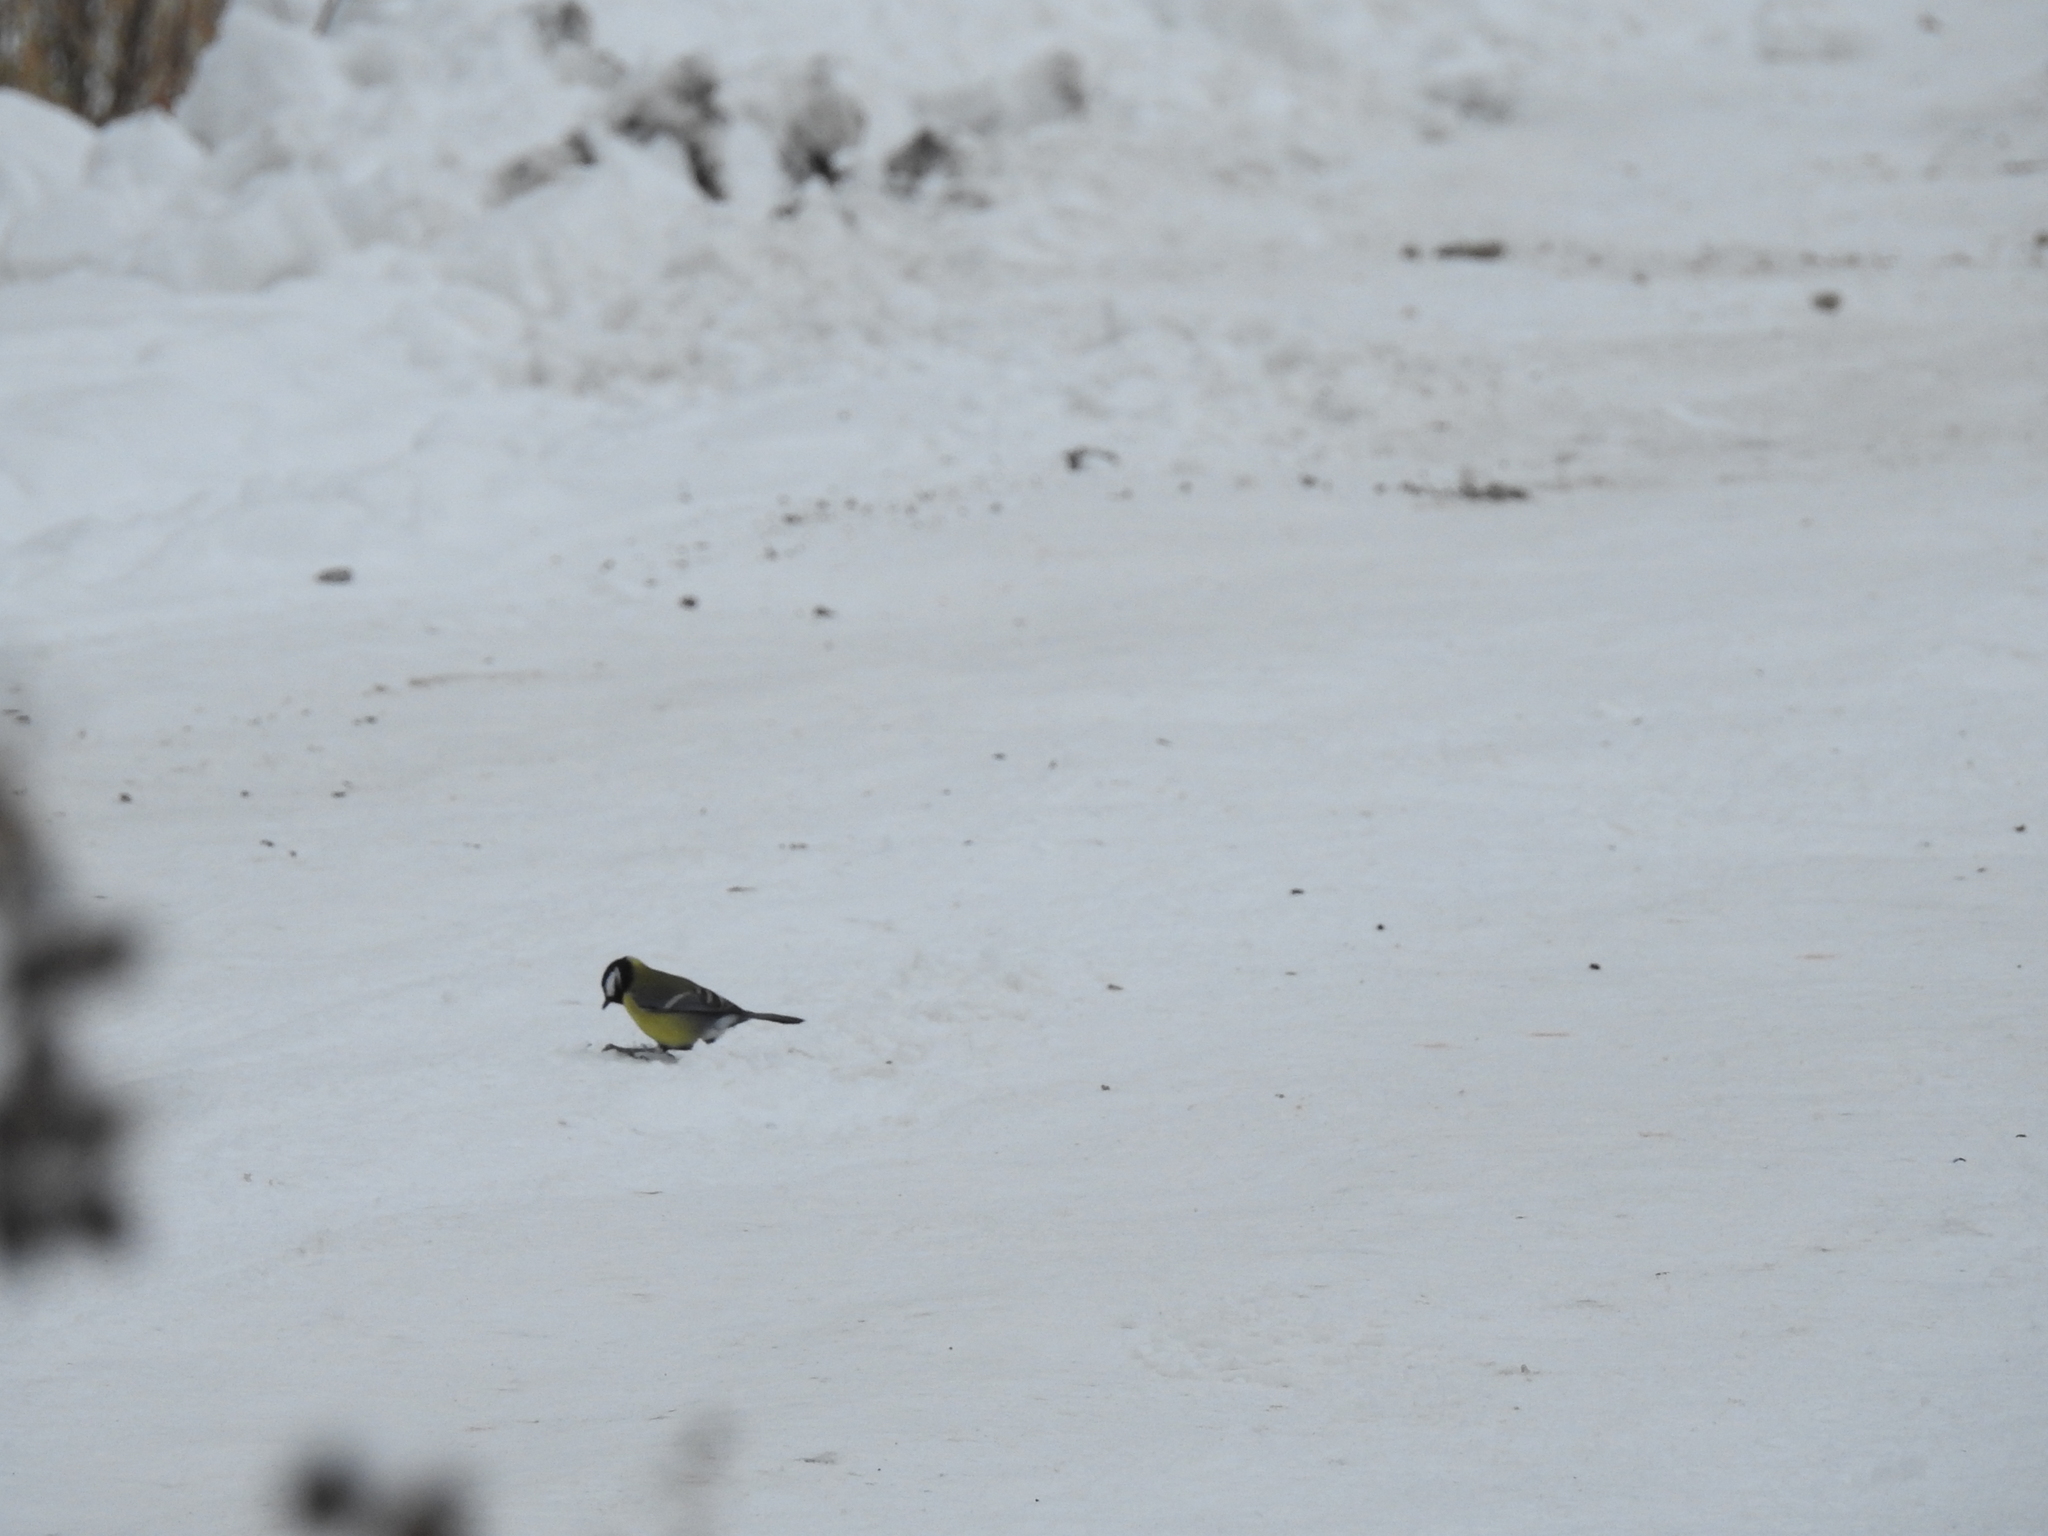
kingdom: Animalia
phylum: Chordata
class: Aves
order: Passeriformes
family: Paridae
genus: Parus
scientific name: Parus major
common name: Great tit
